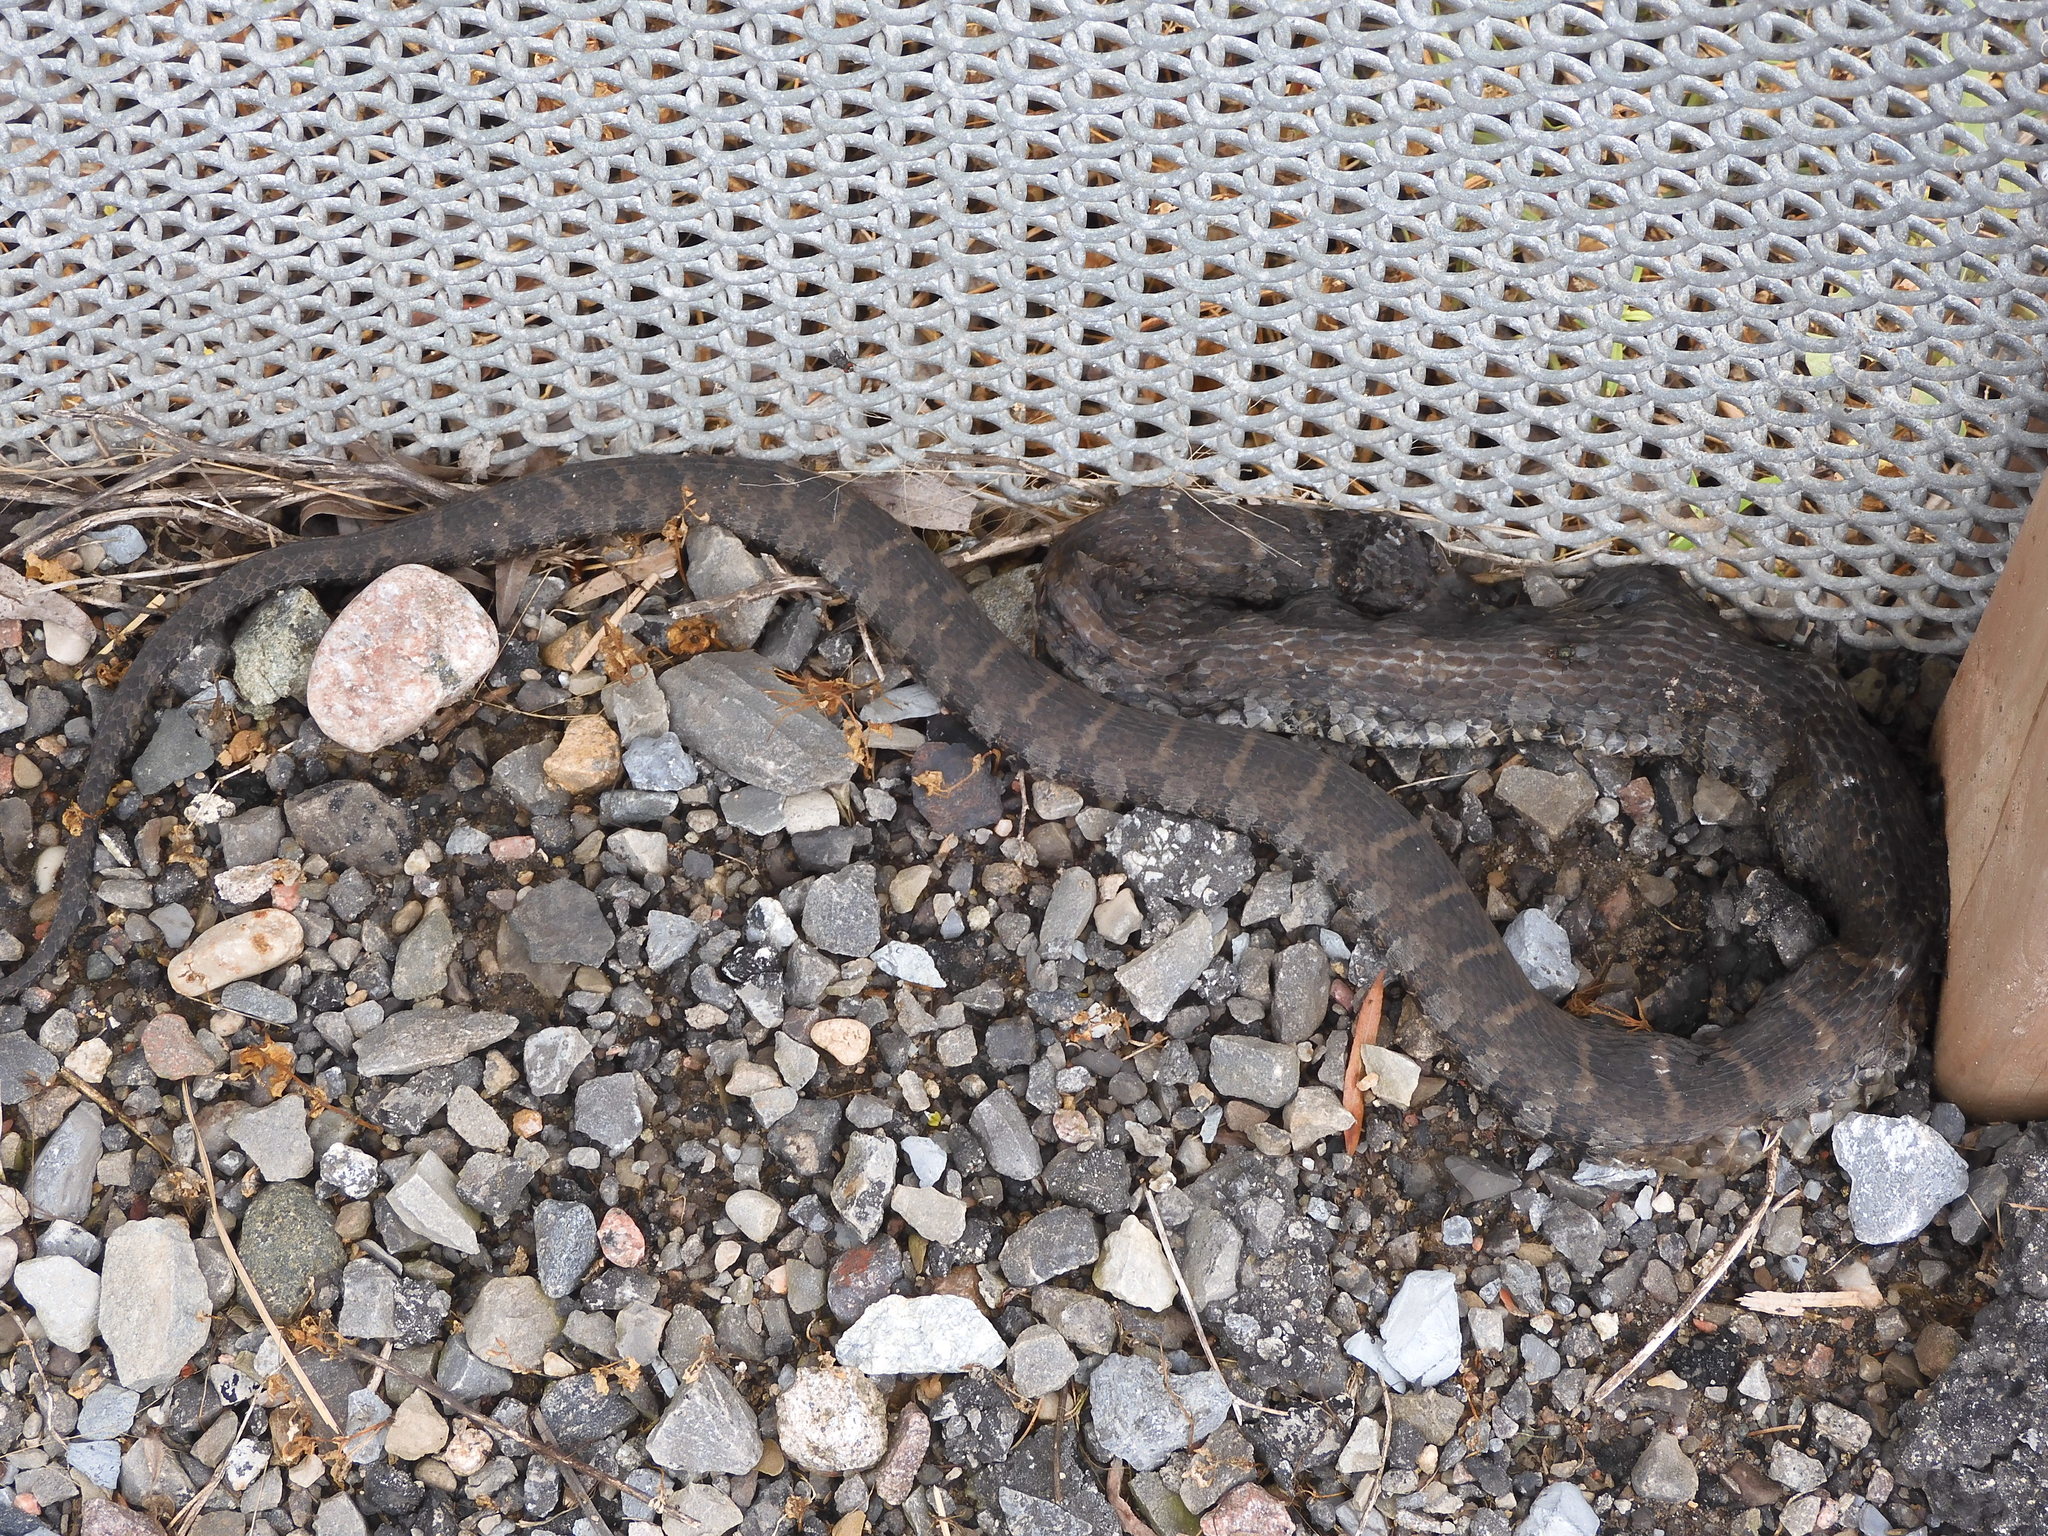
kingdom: Animalia
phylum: Chordata
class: Squamata
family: Colubridae
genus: Nerodia
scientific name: Nerodia sipedon
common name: Northern water snake
